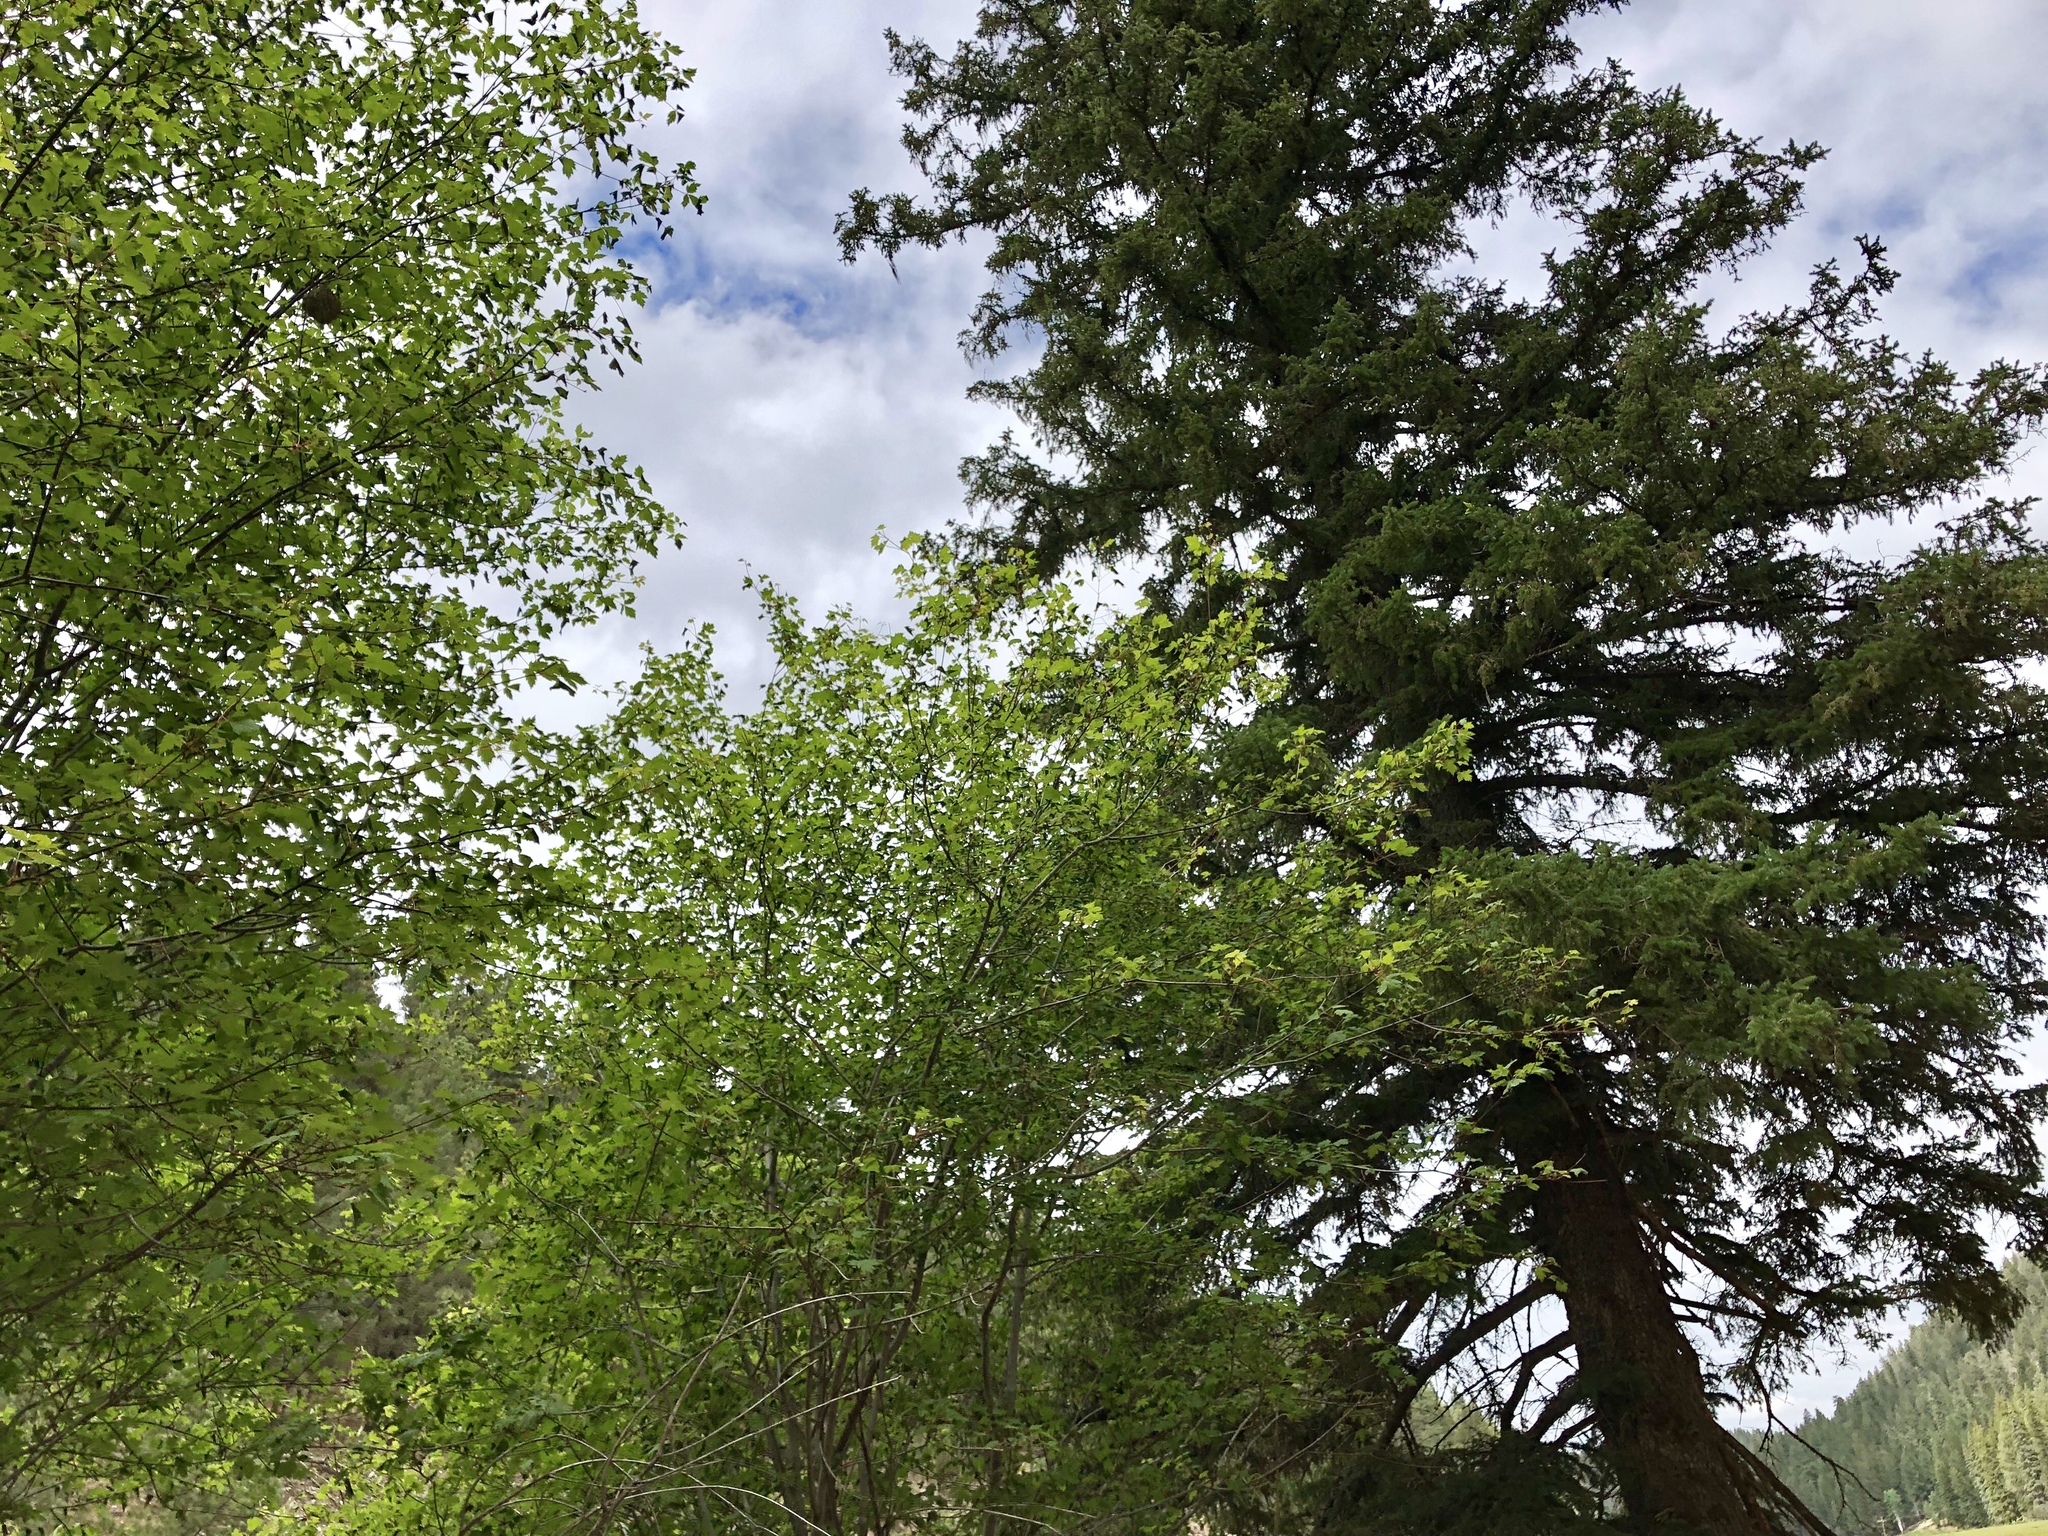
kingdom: Plantae
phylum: Tracheophyta
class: Magnoliopsida
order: Sapindales
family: Sapindaceae
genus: Acer
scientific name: Acer glabrum
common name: Rocky mountain maple
